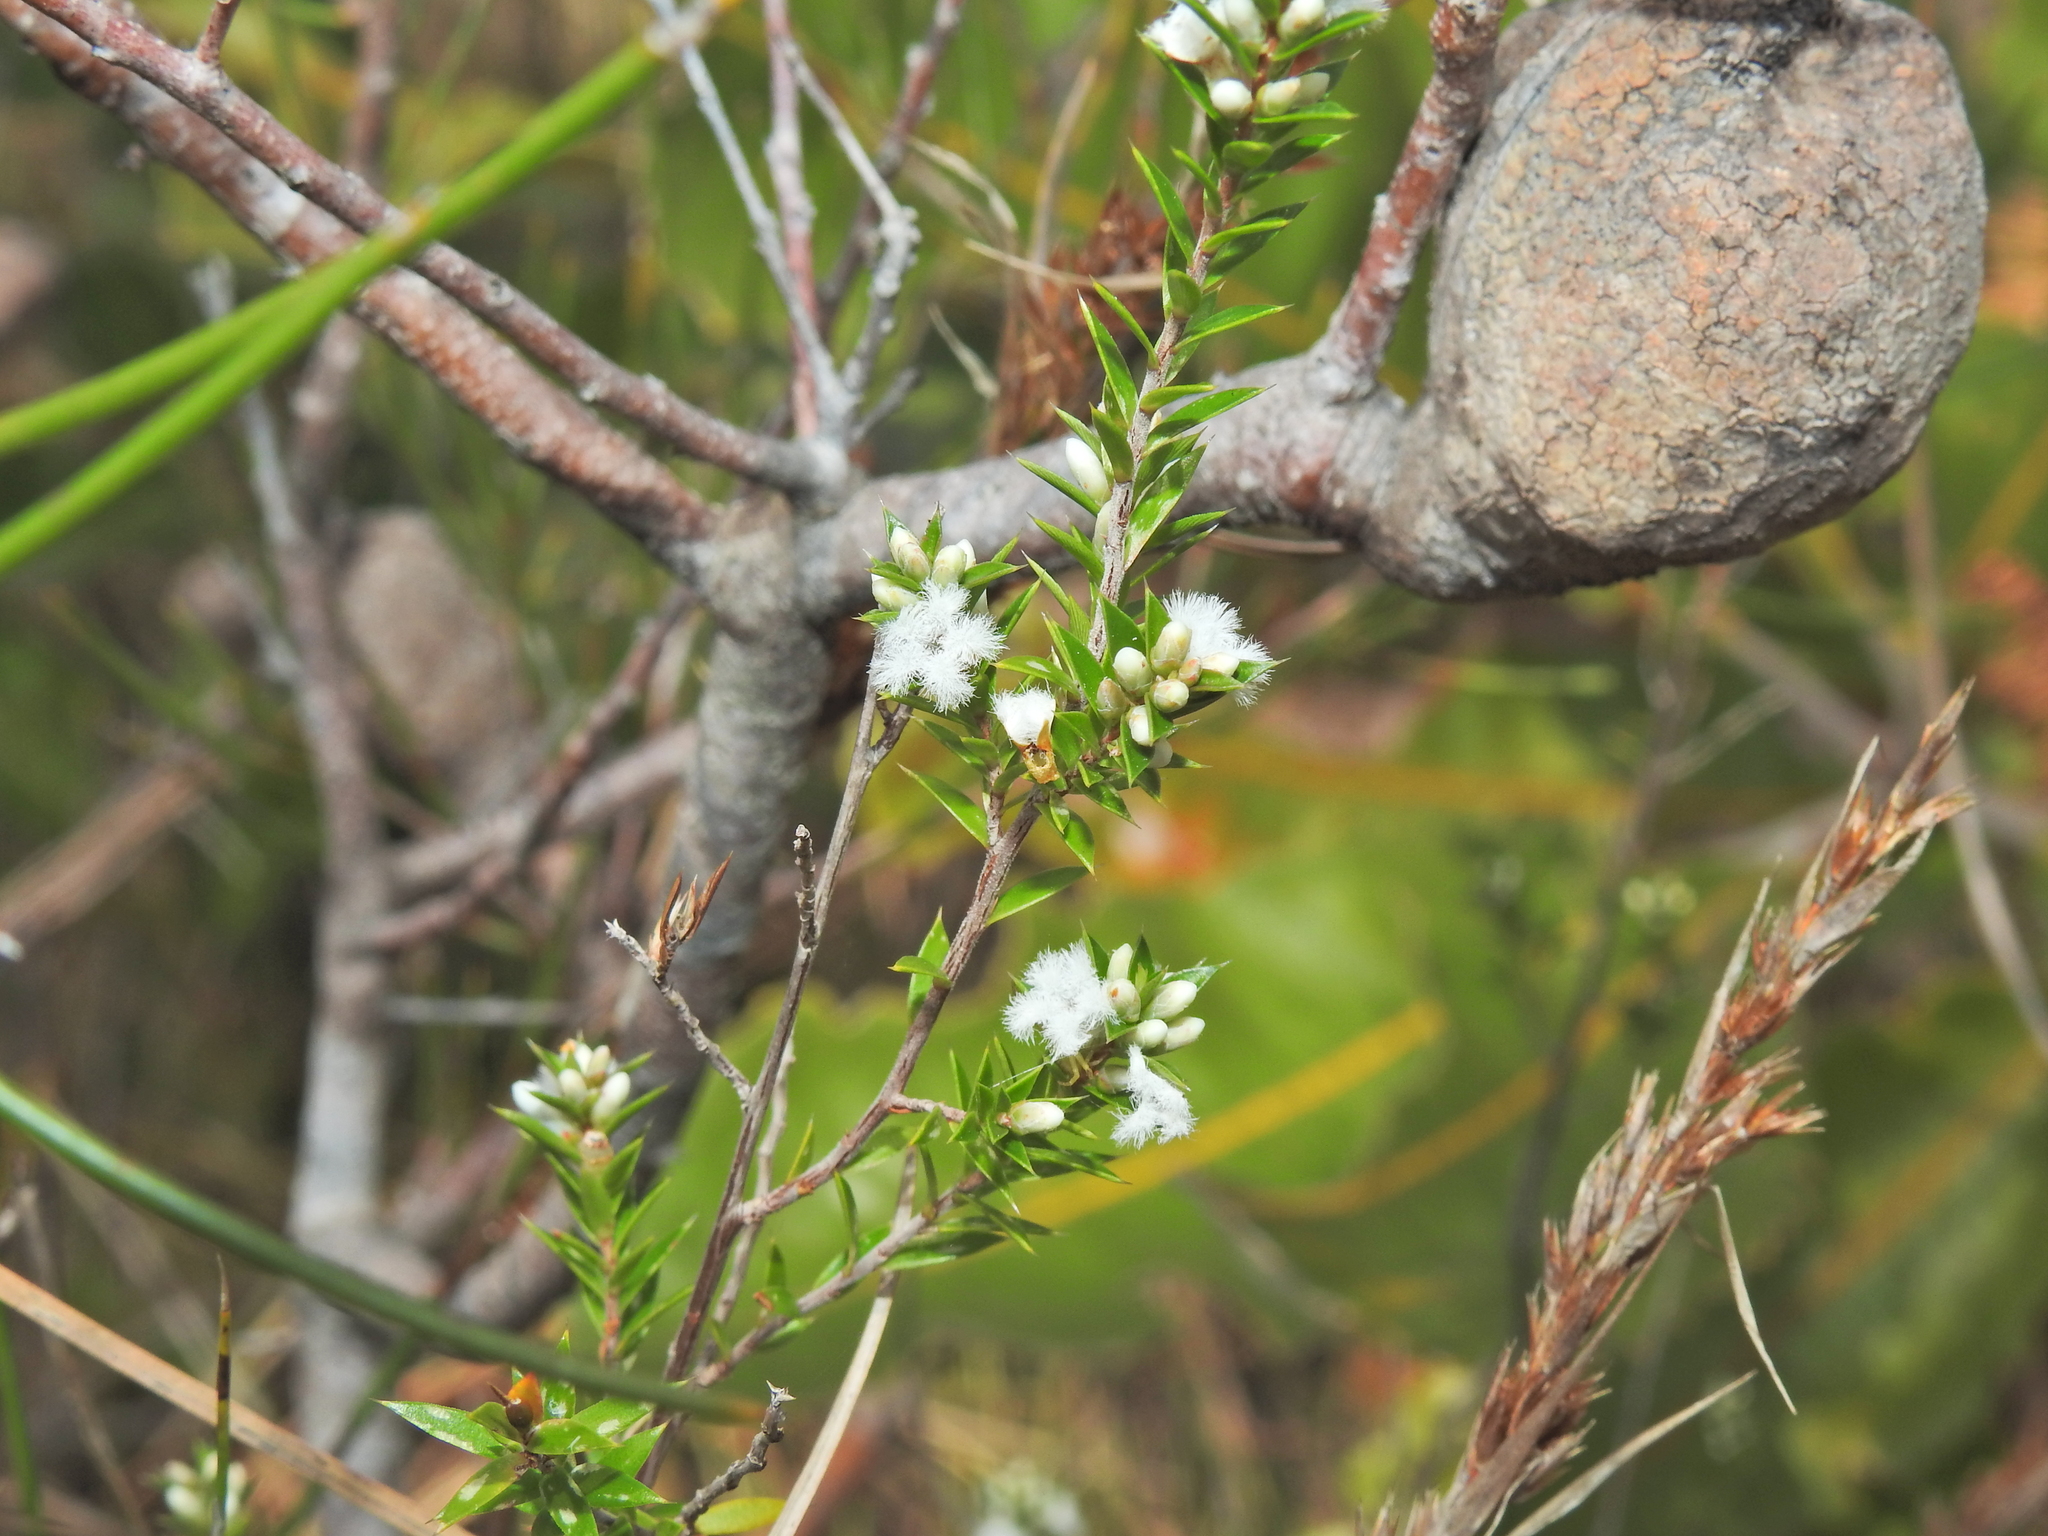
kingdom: Plantae
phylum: Tracheophyta
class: Magnoliopsida
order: Ericales
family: Ericaceae
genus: Styphelia
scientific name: Styphelia
